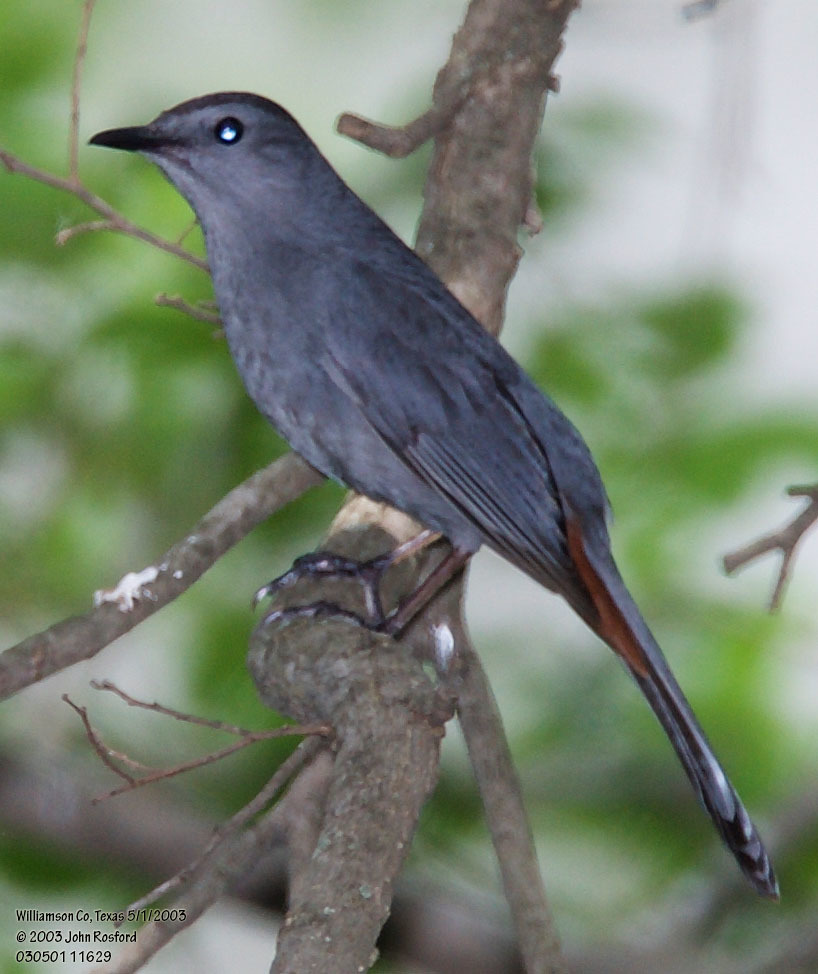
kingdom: Animalia
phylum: Chordata
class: Aves
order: Passeriformes
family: Mimidae
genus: Dumetella
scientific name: Dumetella carolinensis
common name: Gray catbird
